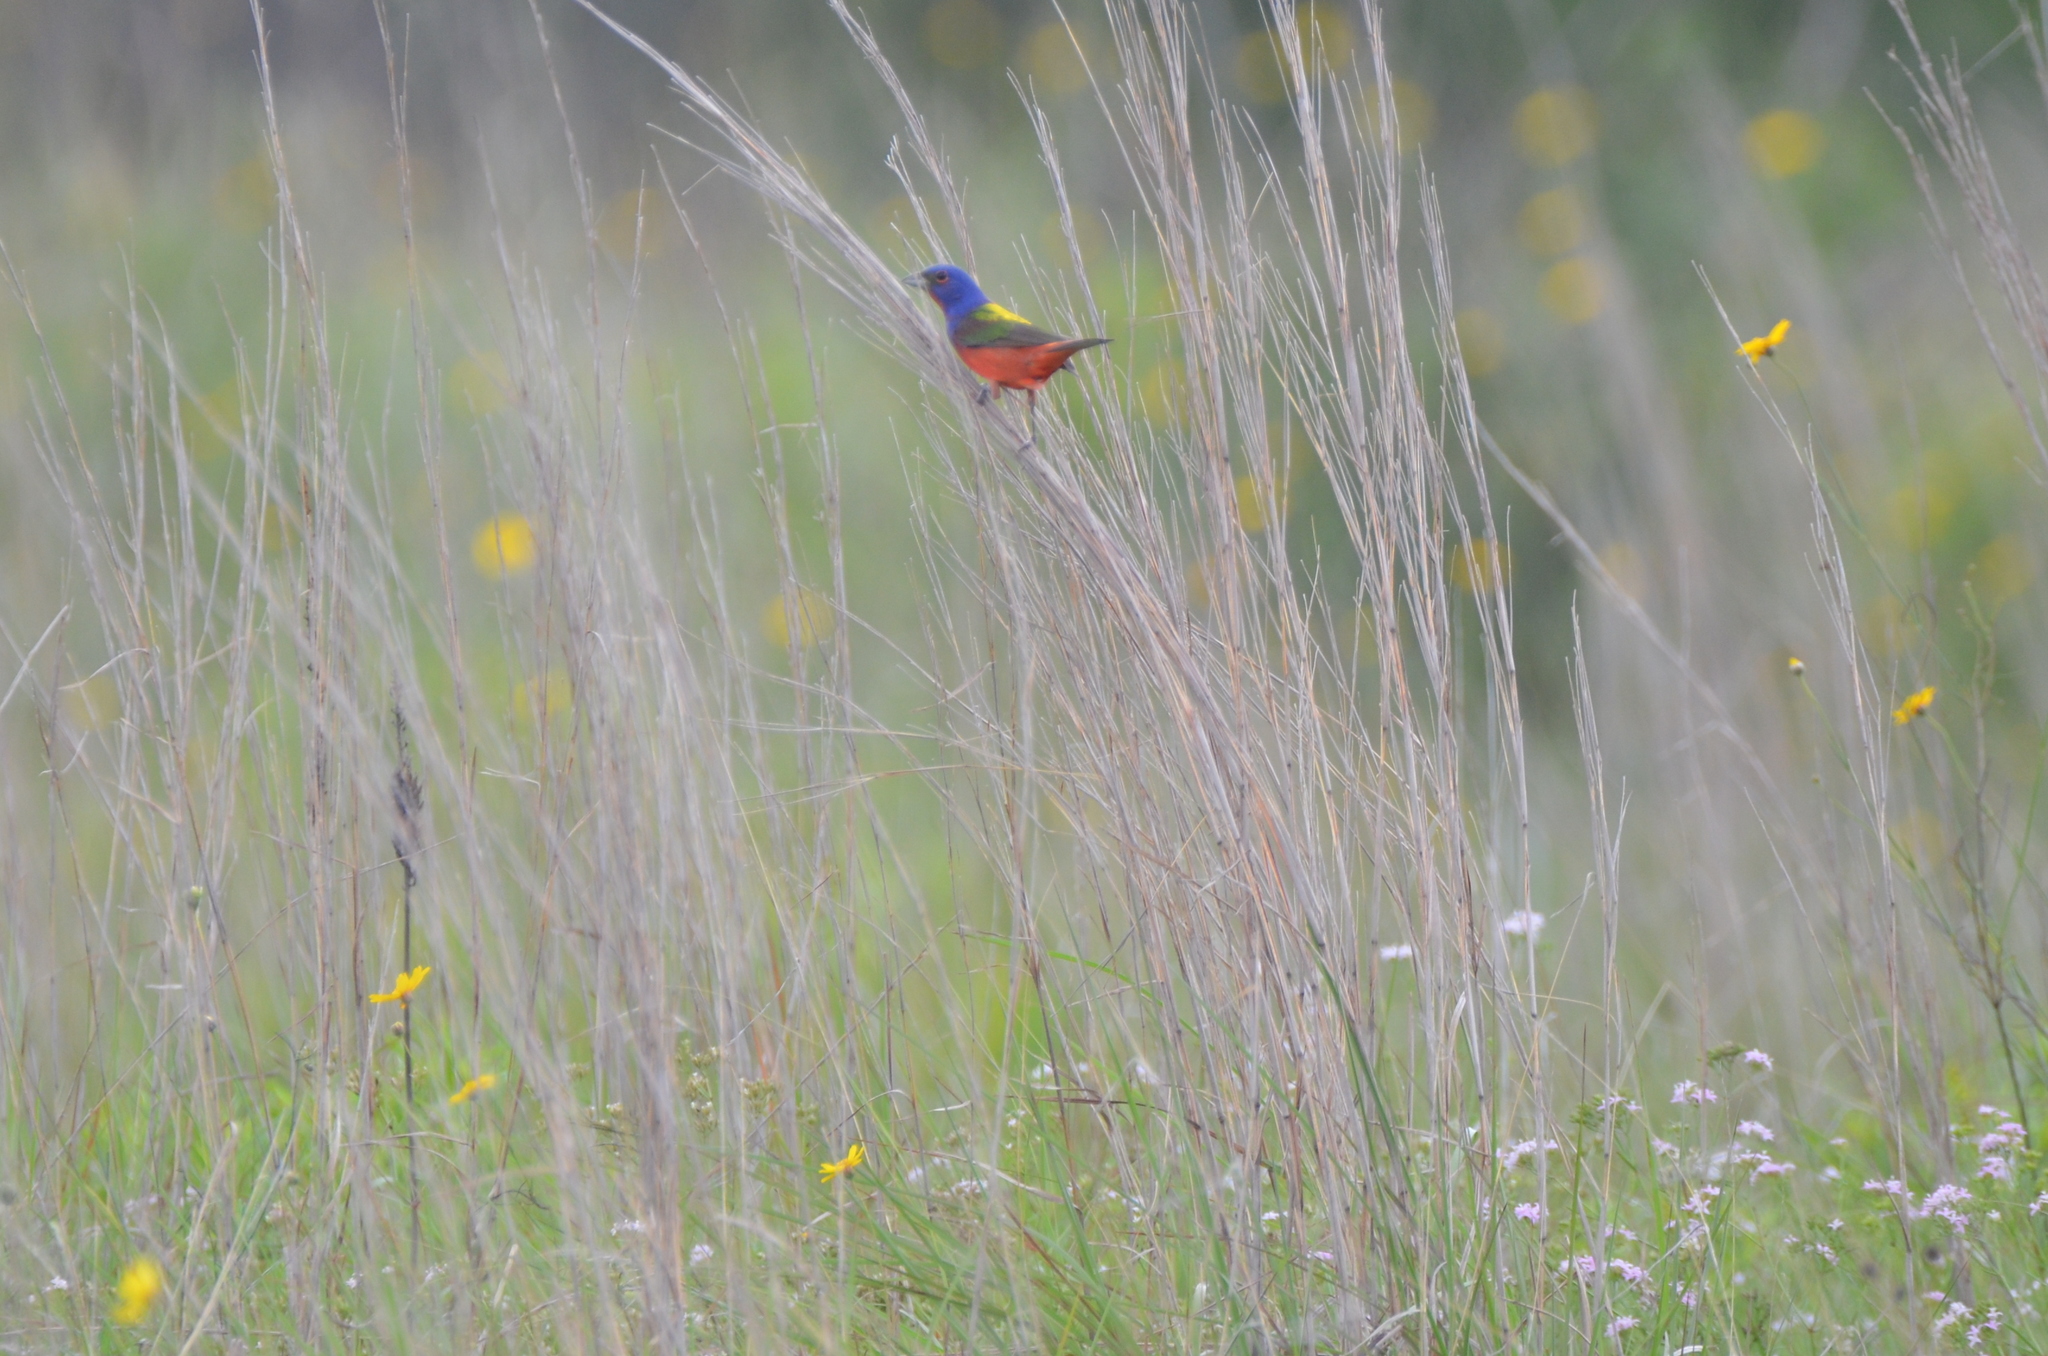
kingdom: Animalia
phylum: Chordata
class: Aves
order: Passeriformes
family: Cardinalidae
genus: Passerina
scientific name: Passerina ciris
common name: Painted bunting
